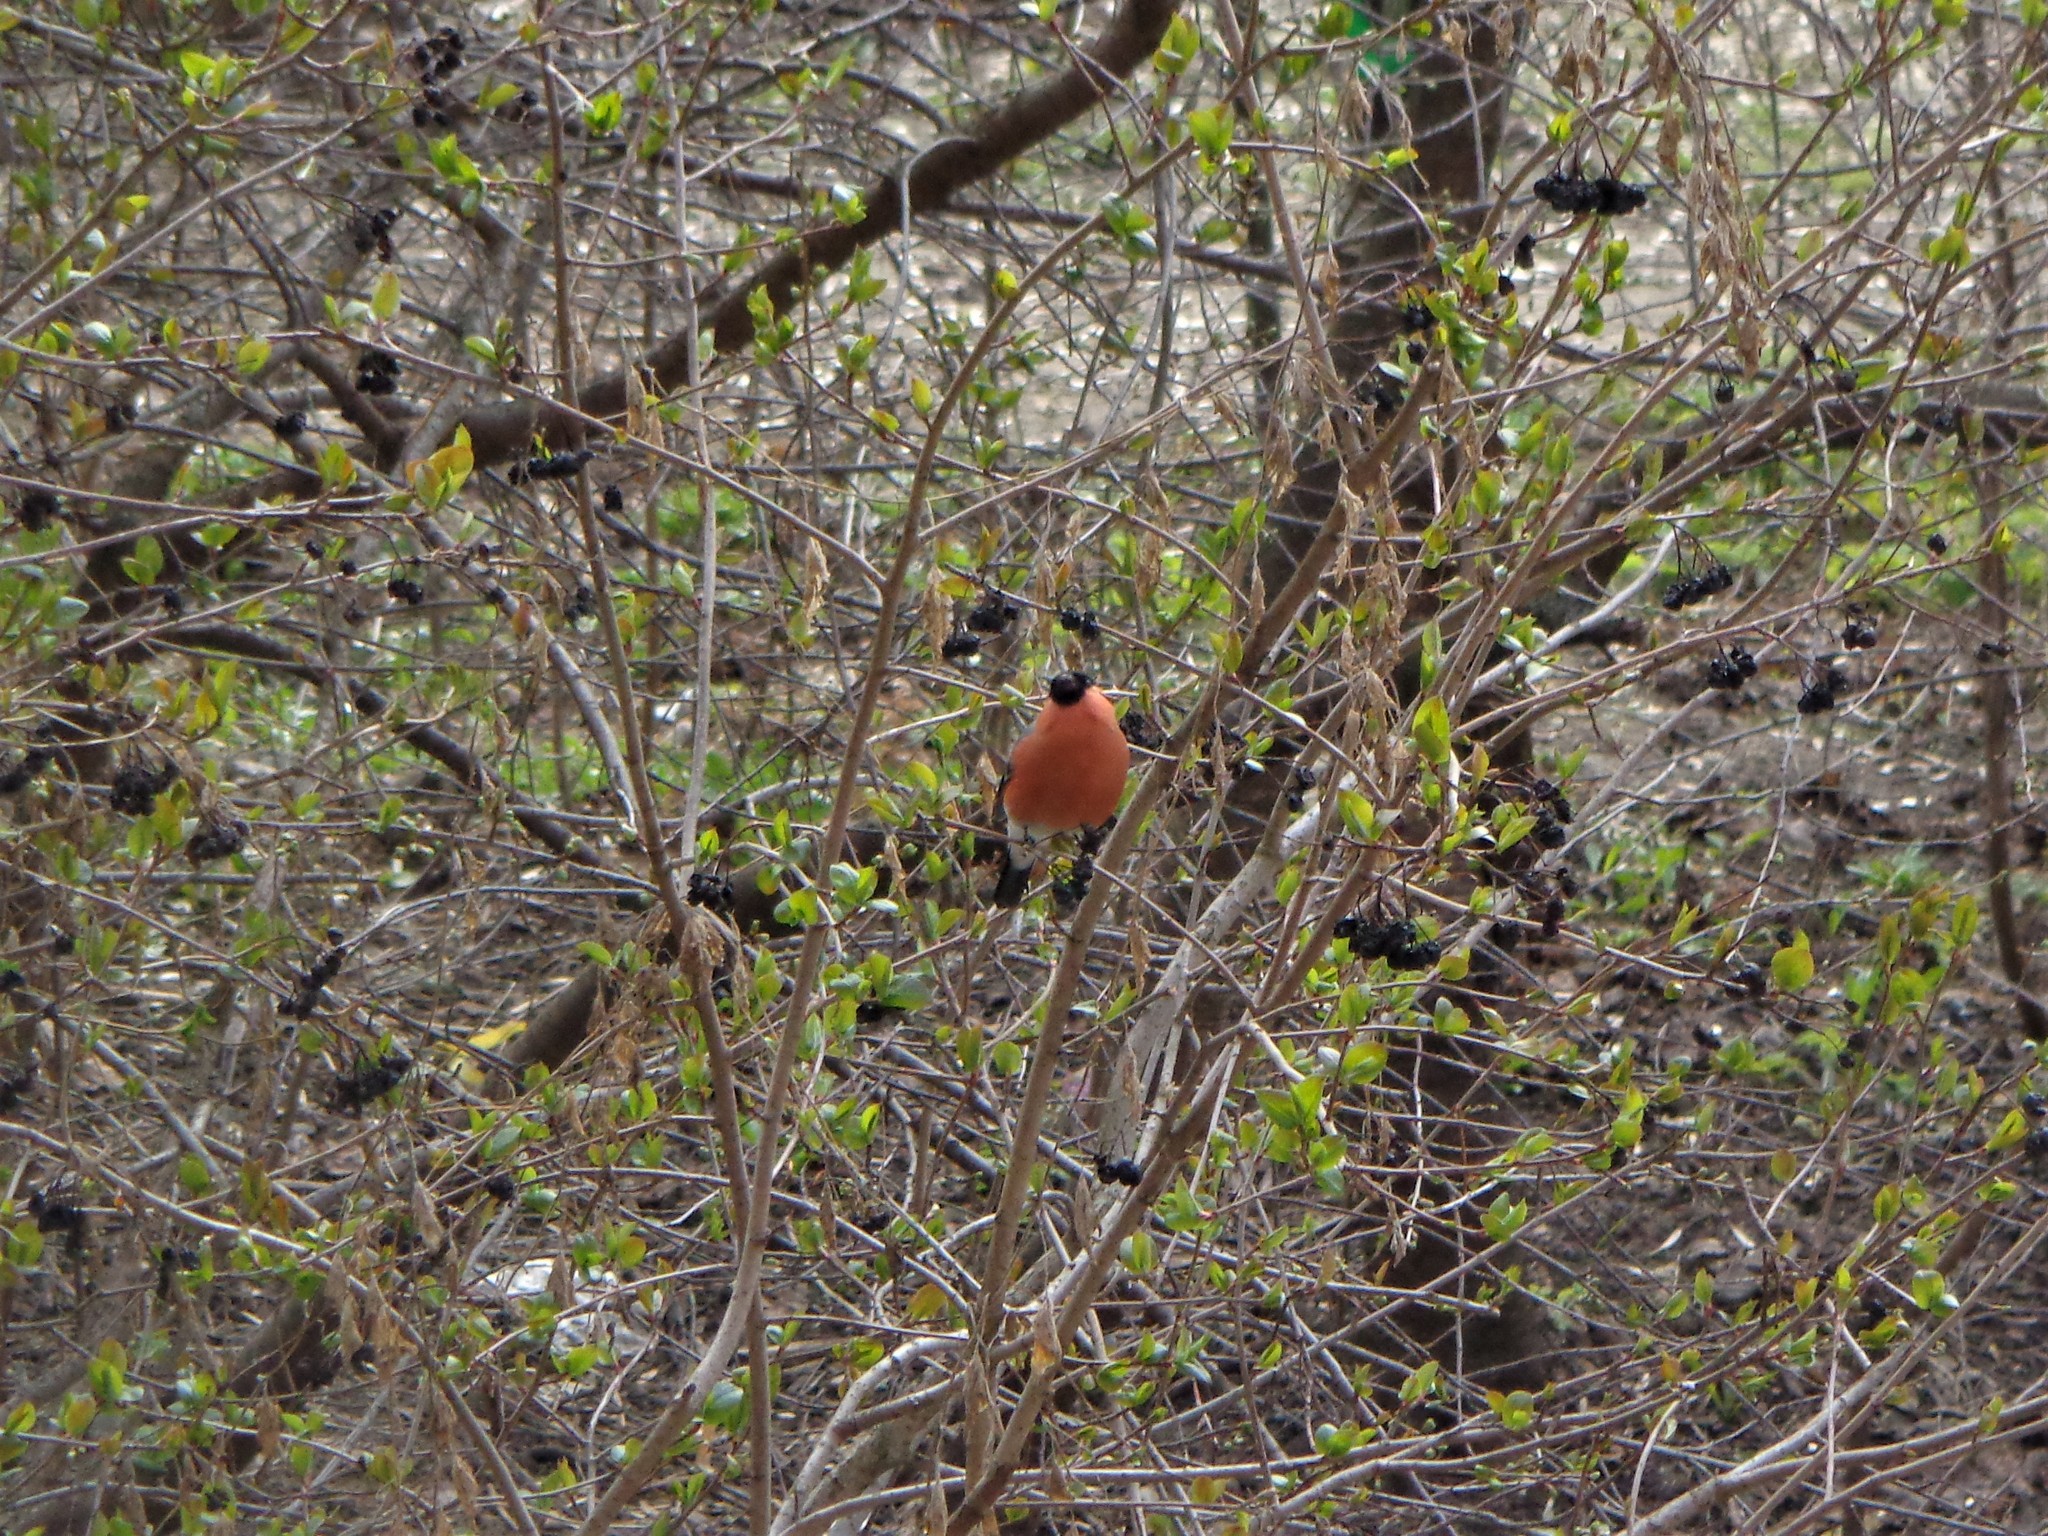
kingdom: Animalia
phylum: Chordata
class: Aves
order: Passeriformes
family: Fringillidae
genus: Pyrrhula
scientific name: Pyrrhula pyrrhula
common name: Eurasian bullfinch
